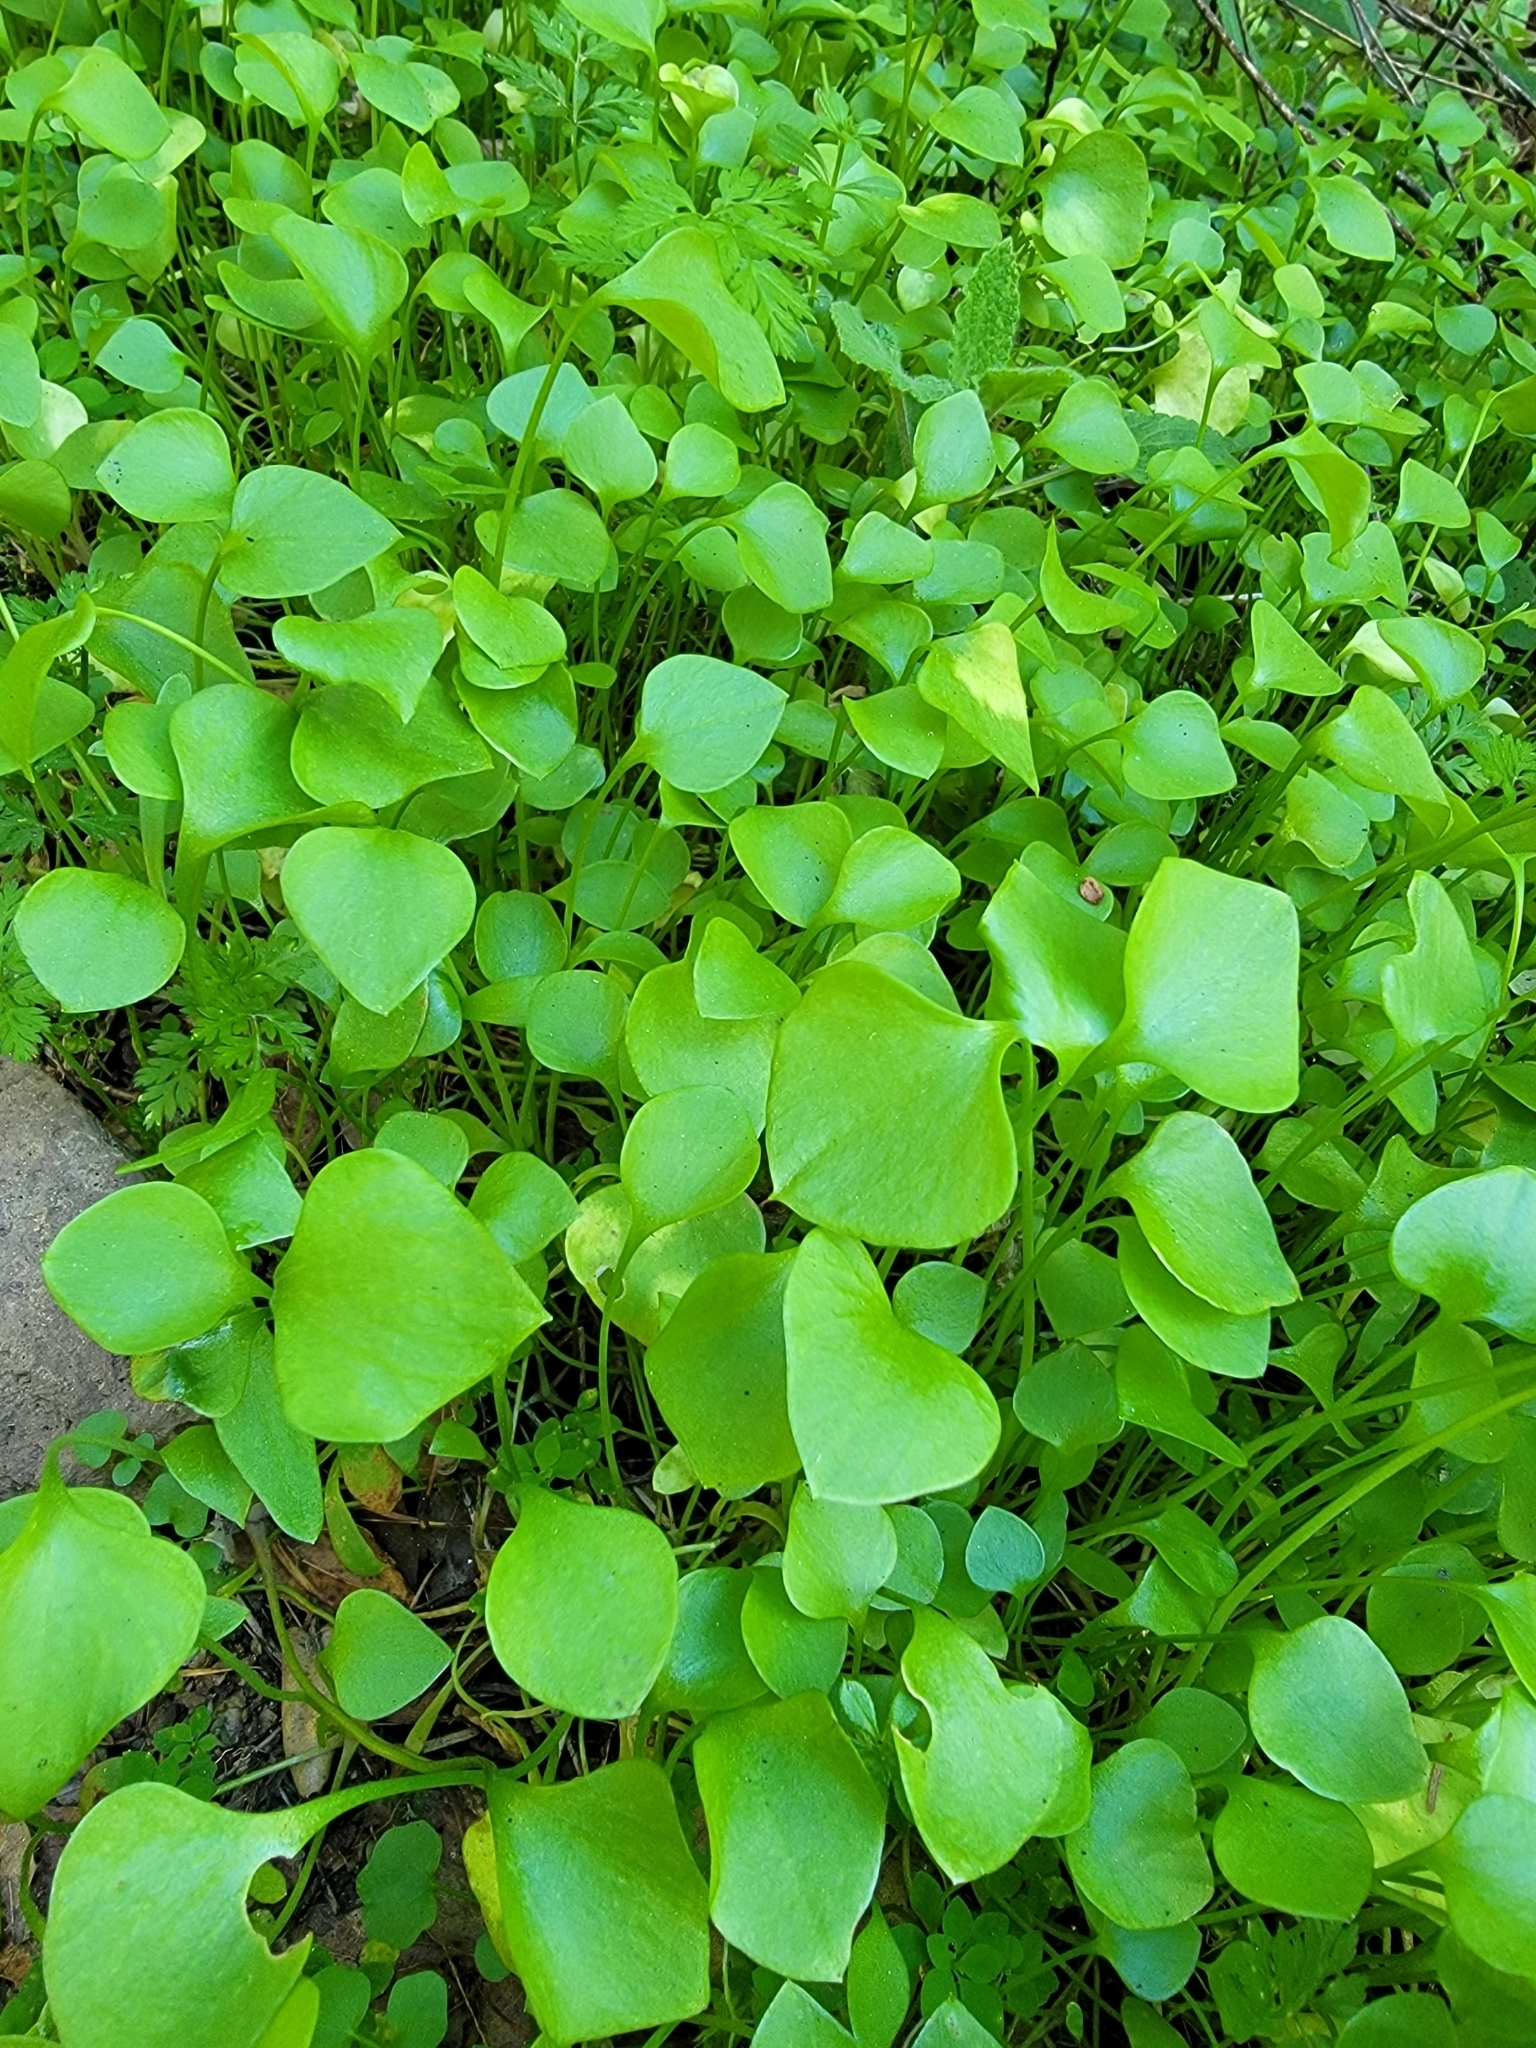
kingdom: Plantae
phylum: Tracheophyta
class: Magnoliopsida
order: Caryophyllales
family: Montiaceae
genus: Claytonia
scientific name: Claytonia perfoliata
